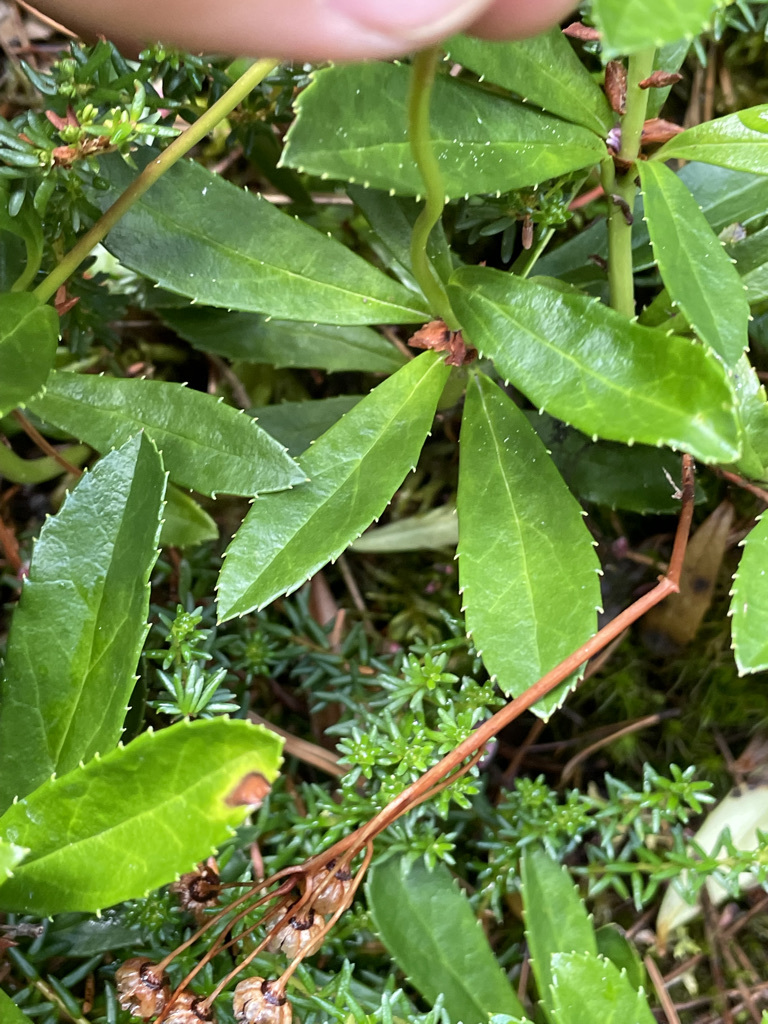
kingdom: Plantae
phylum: Tracheophyta
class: Magnoliopsida
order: Ericales
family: Ericaceae
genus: Chimaphila
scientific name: Chimaphila umbellata
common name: Pipsissewa
